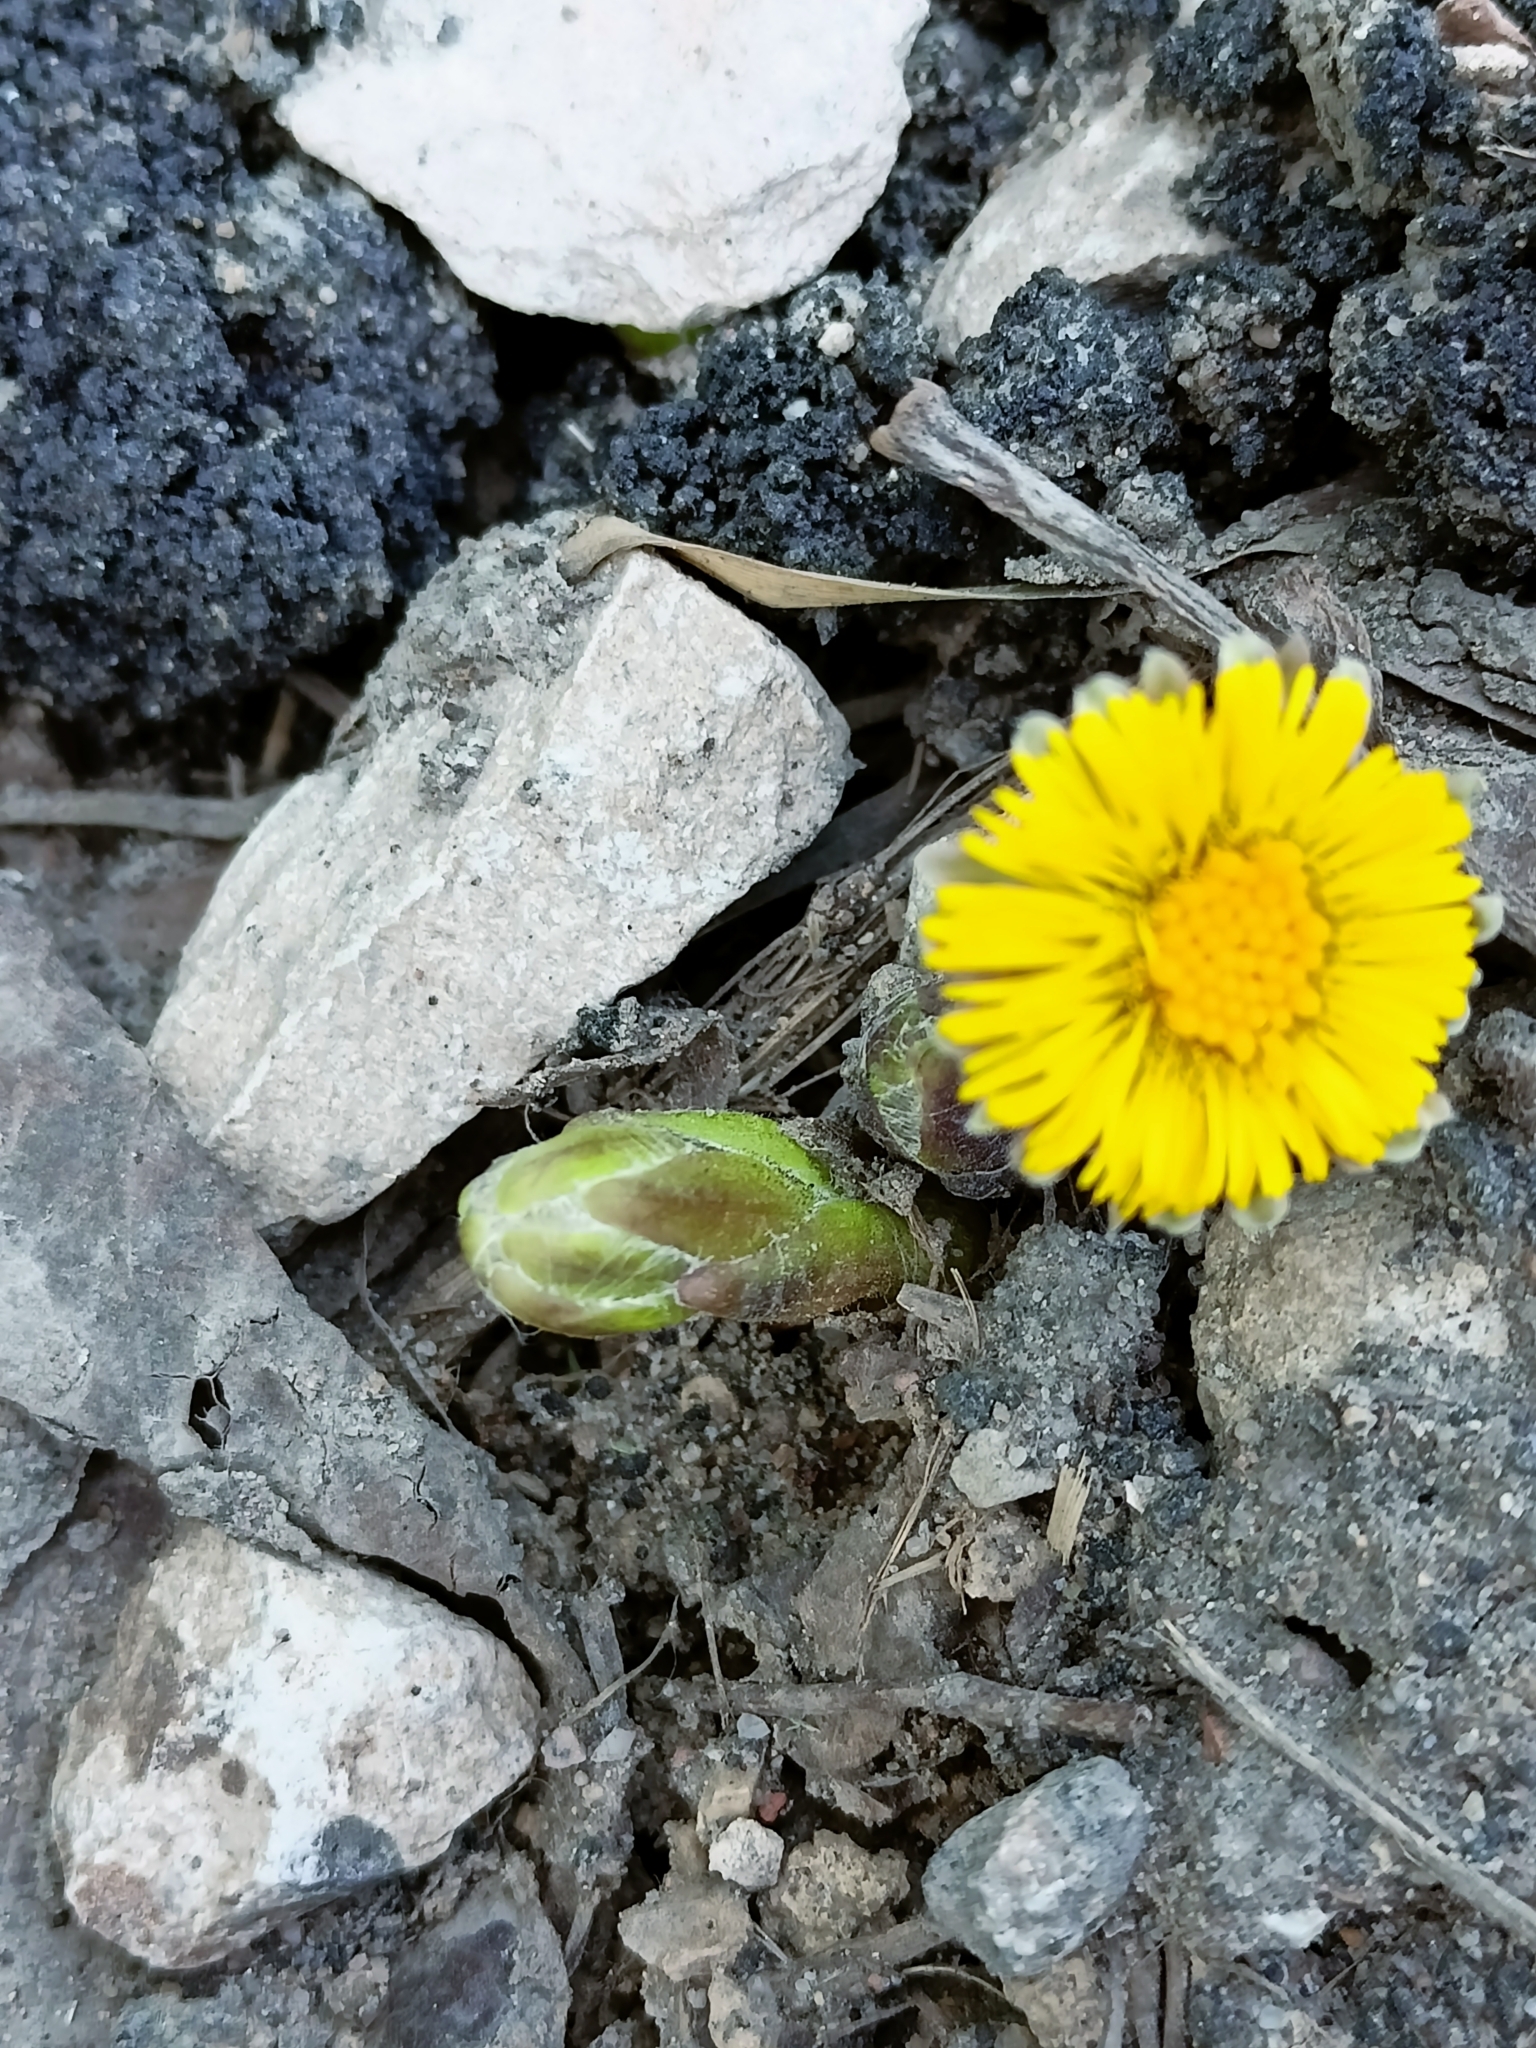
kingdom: Plantae
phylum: Tracheophyta
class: Magnoliopsida
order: Asterales
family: Asteraceae
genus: Tussilago
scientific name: Tussilago farfara
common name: Coltsfoot
